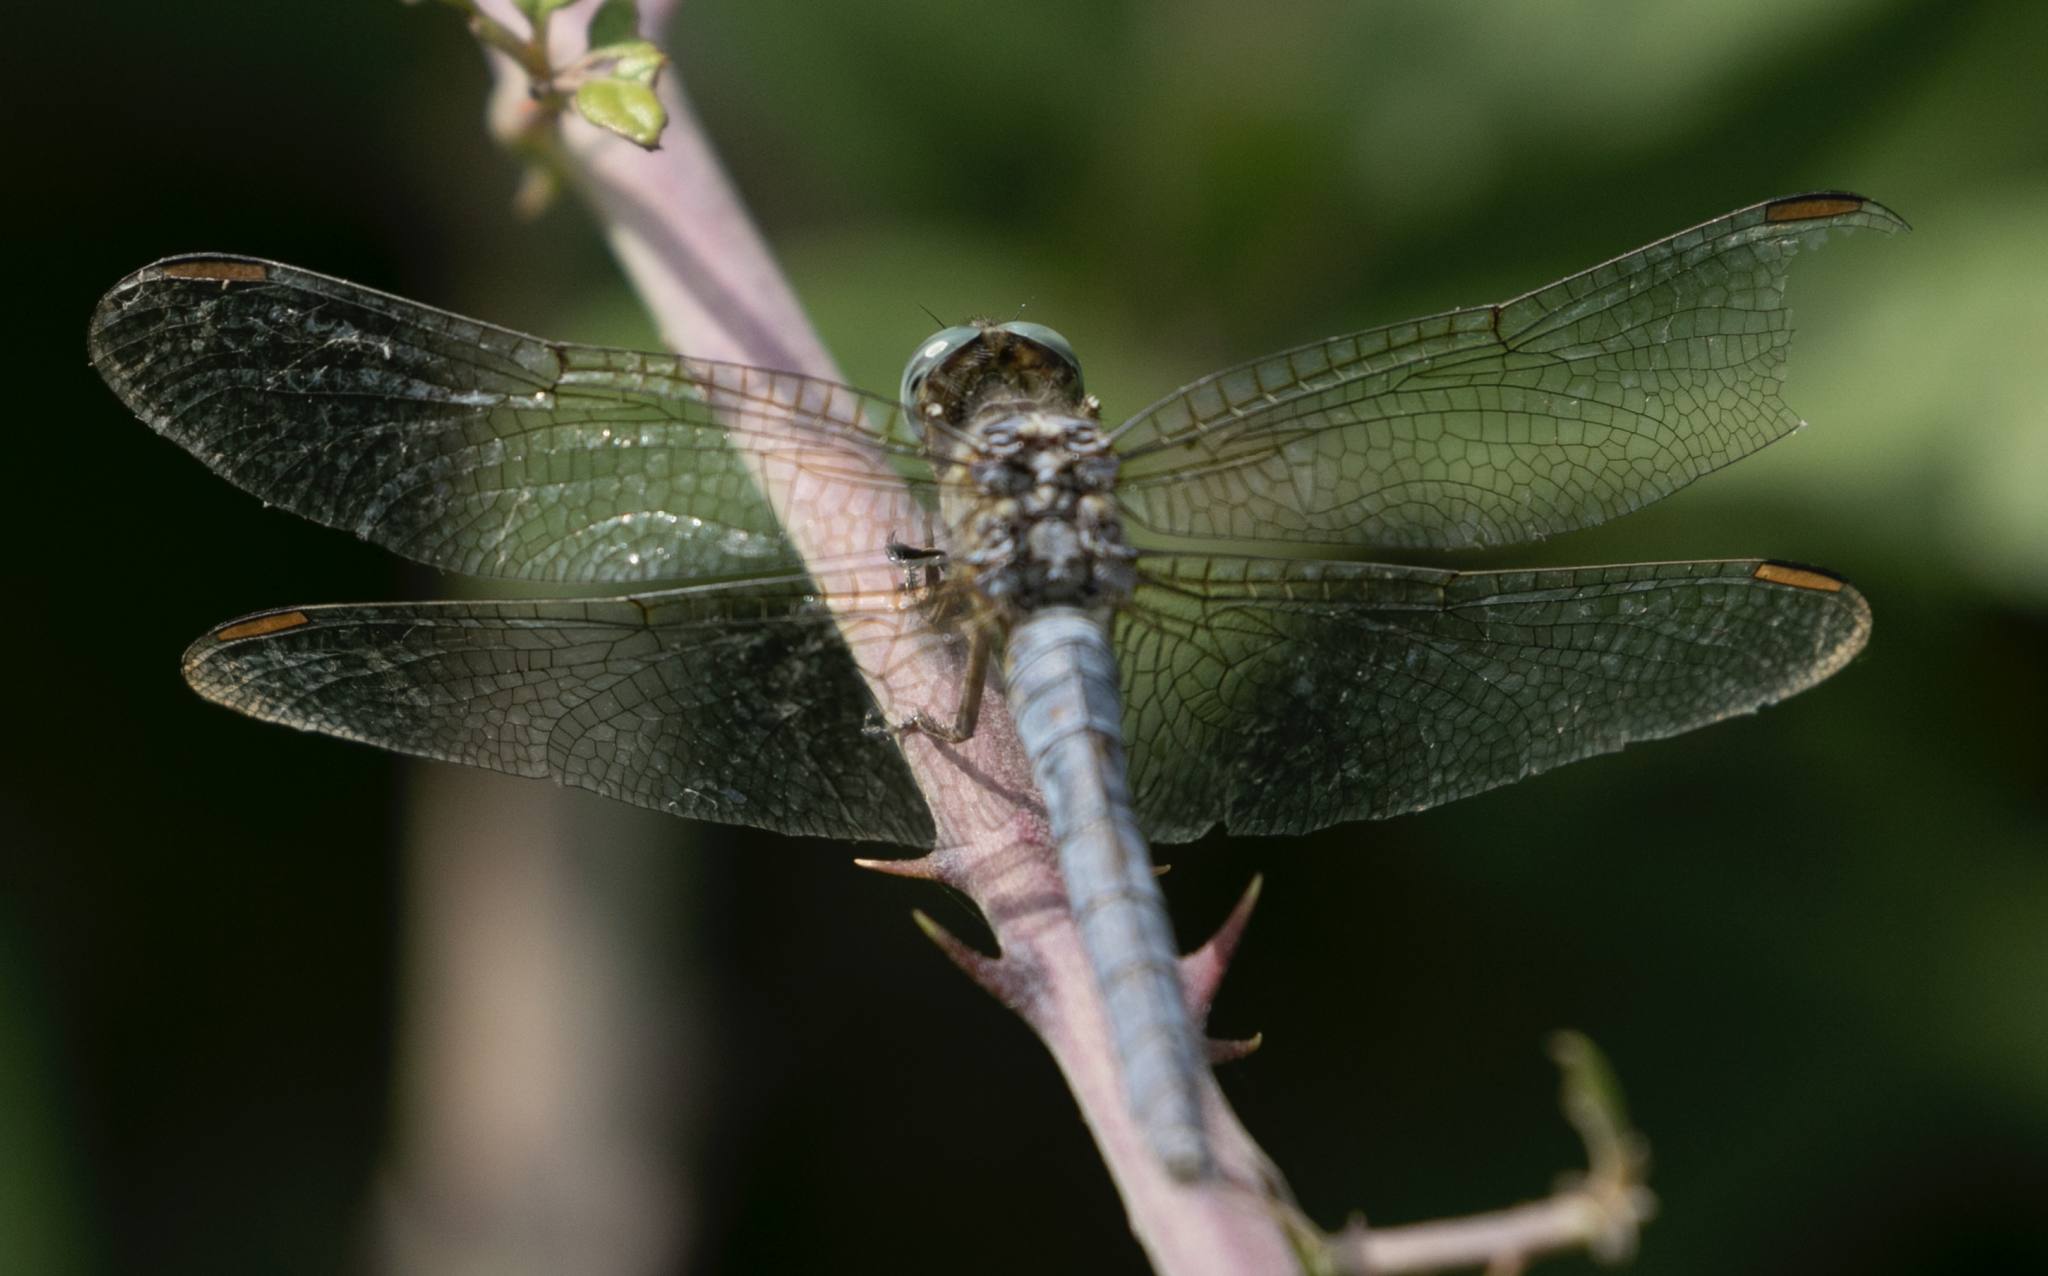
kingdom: Animalia
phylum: Arthropoda
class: Insecta
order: Odonata
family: Libellulidae
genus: Orthetrum
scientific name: Orthetrum coerulescens
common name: Keeled skimmer
